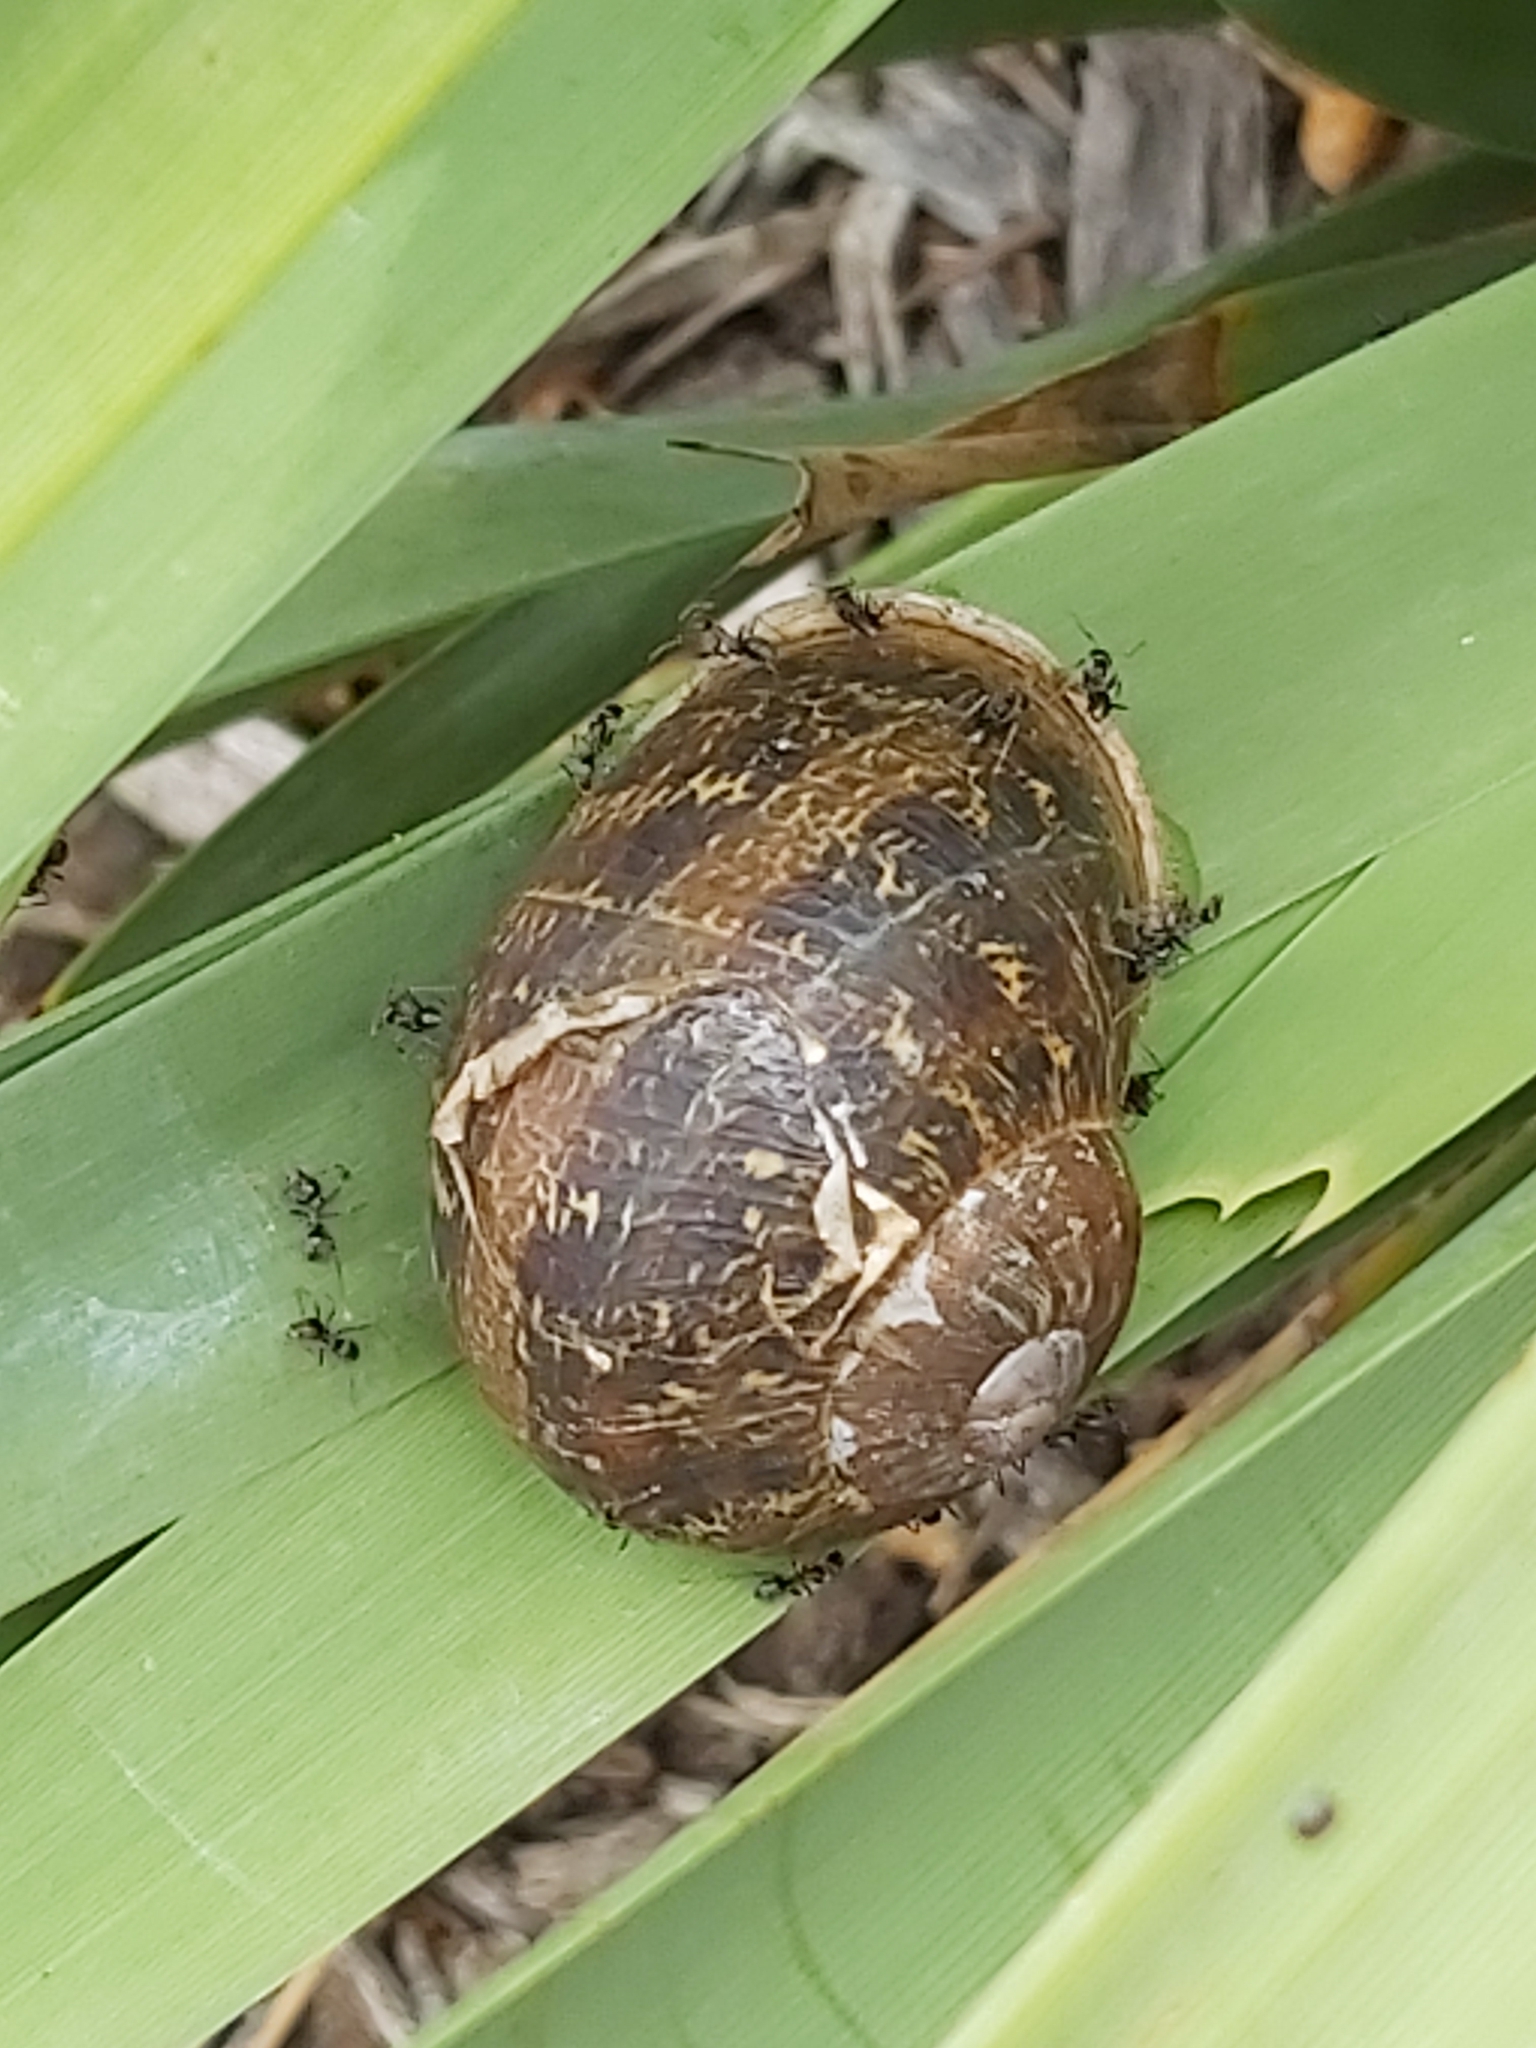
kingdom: Animalia
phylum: Mollusca
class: Gastropoda
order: Stylommatophora
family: Helicidae
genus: Cornu
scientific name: Cornu aspersum
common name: Brown garden snail
